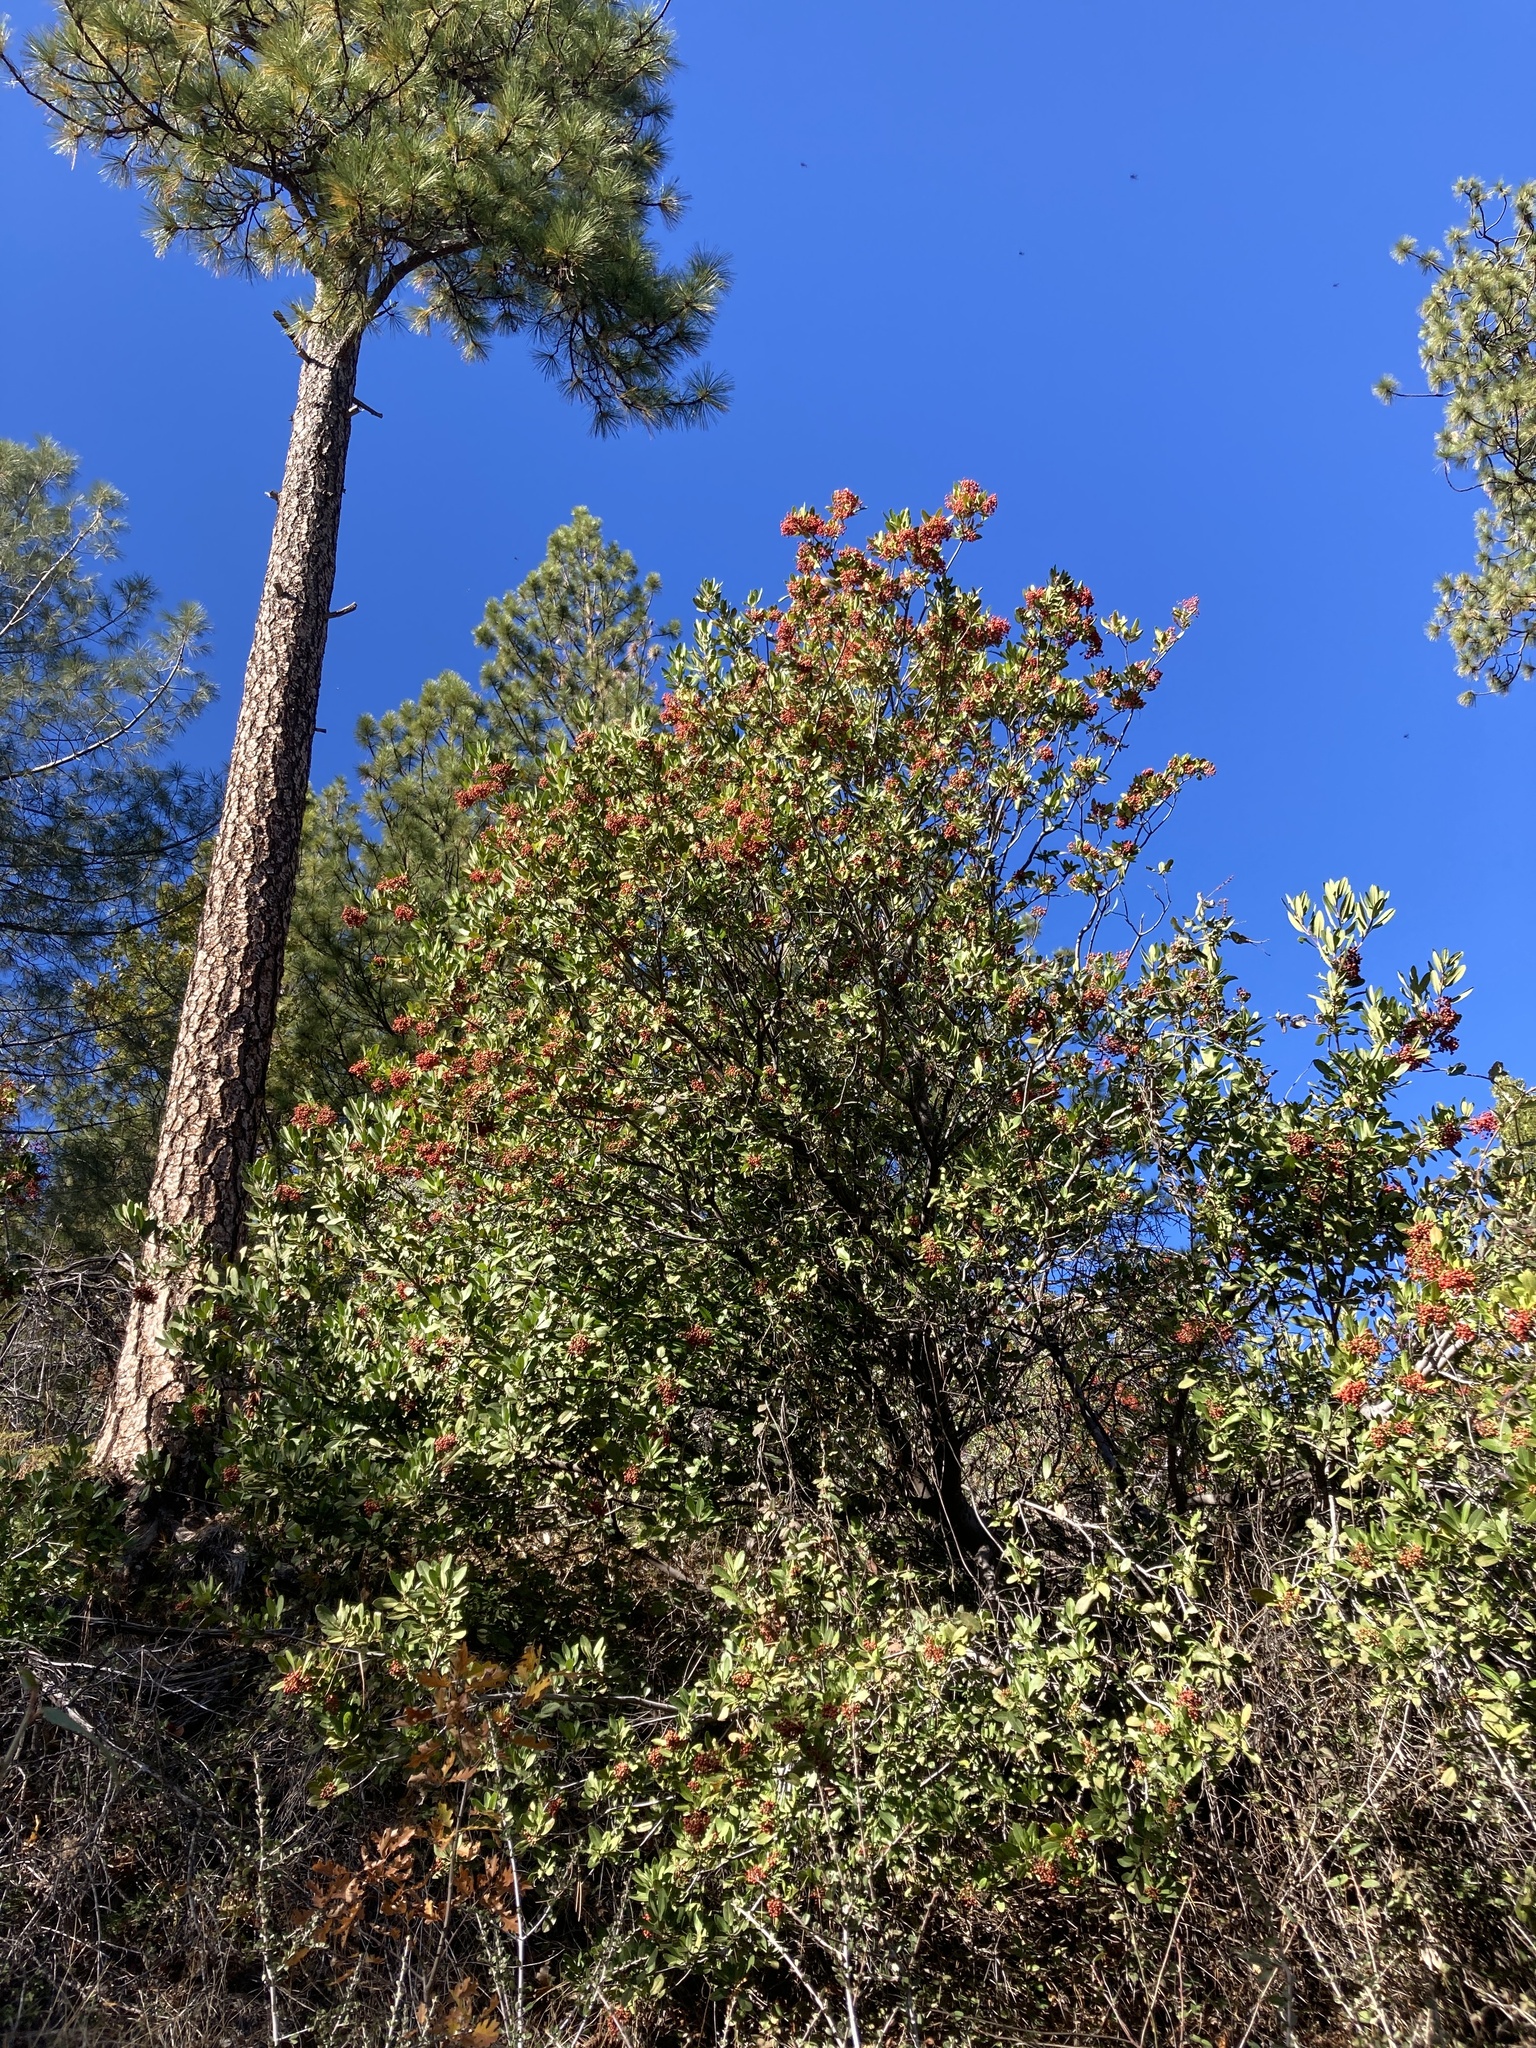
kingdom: Plantae
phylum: Tracheophyta
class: Magnoliopsida
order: Rosales
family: Rosaceae
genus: Heteromeles
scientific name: Heteromeles arbutifolia
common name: California-holly
